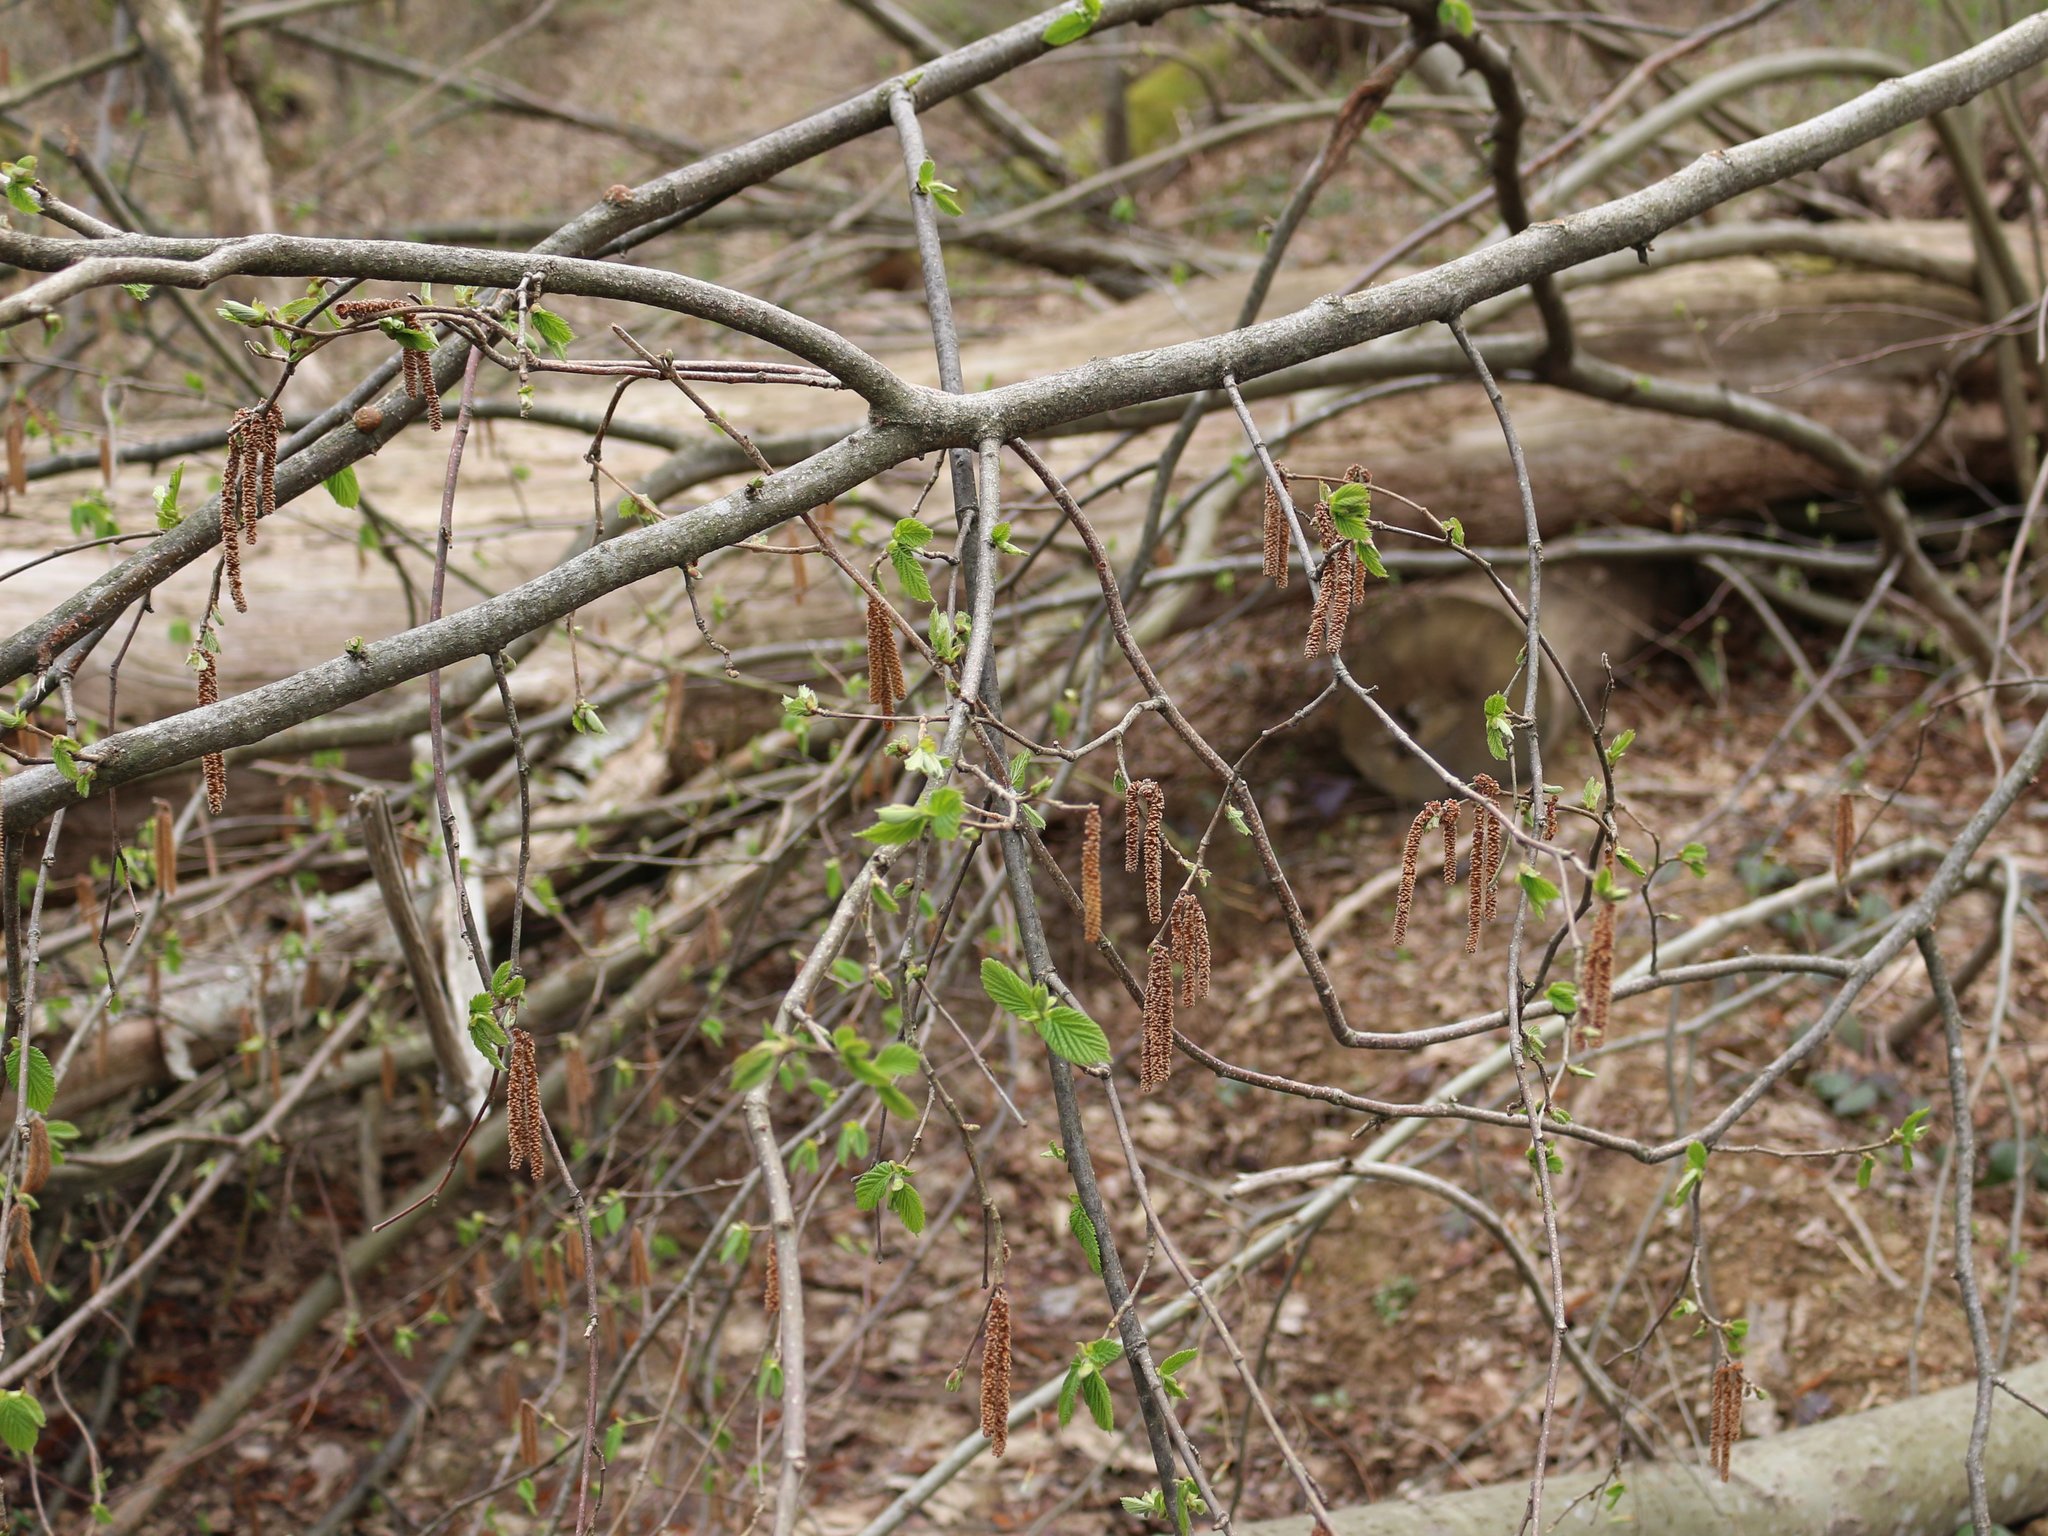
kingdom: Plantae
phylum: Tracheophyta
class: Magnoliopsida
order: Fagales
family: Betulaceae
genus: Corylus
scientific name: Corylus avellana
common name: European hazel
